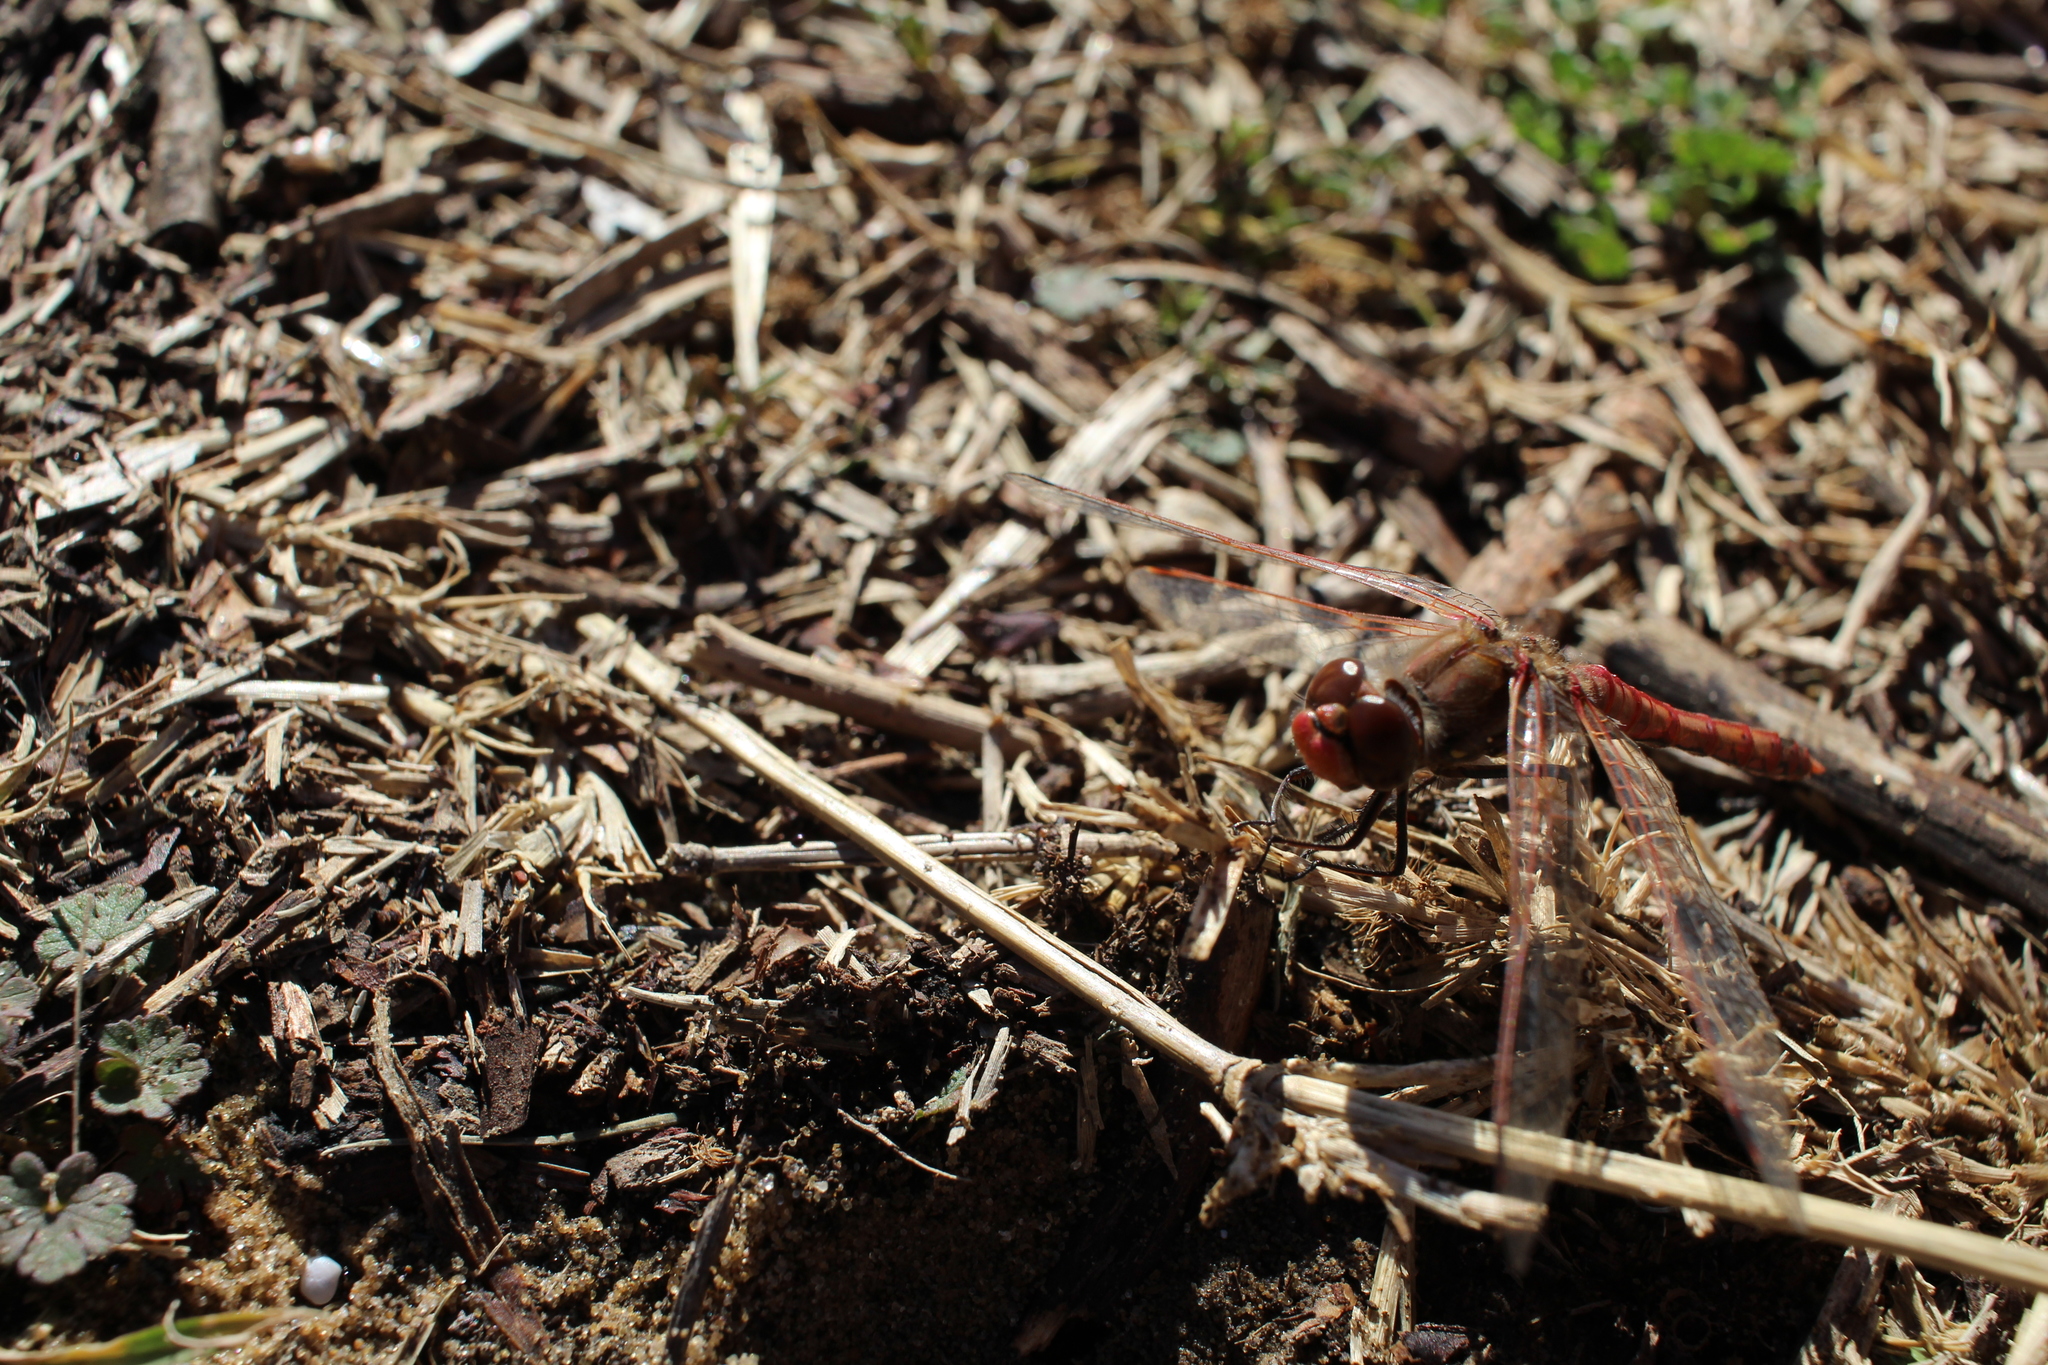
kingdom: Animalia
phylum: Arthropoda
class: Insecta
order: Odonata
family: Libellulidae
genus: Sympetrum
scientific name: Sympetrum corruptum
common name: Variegated meadowhawk
